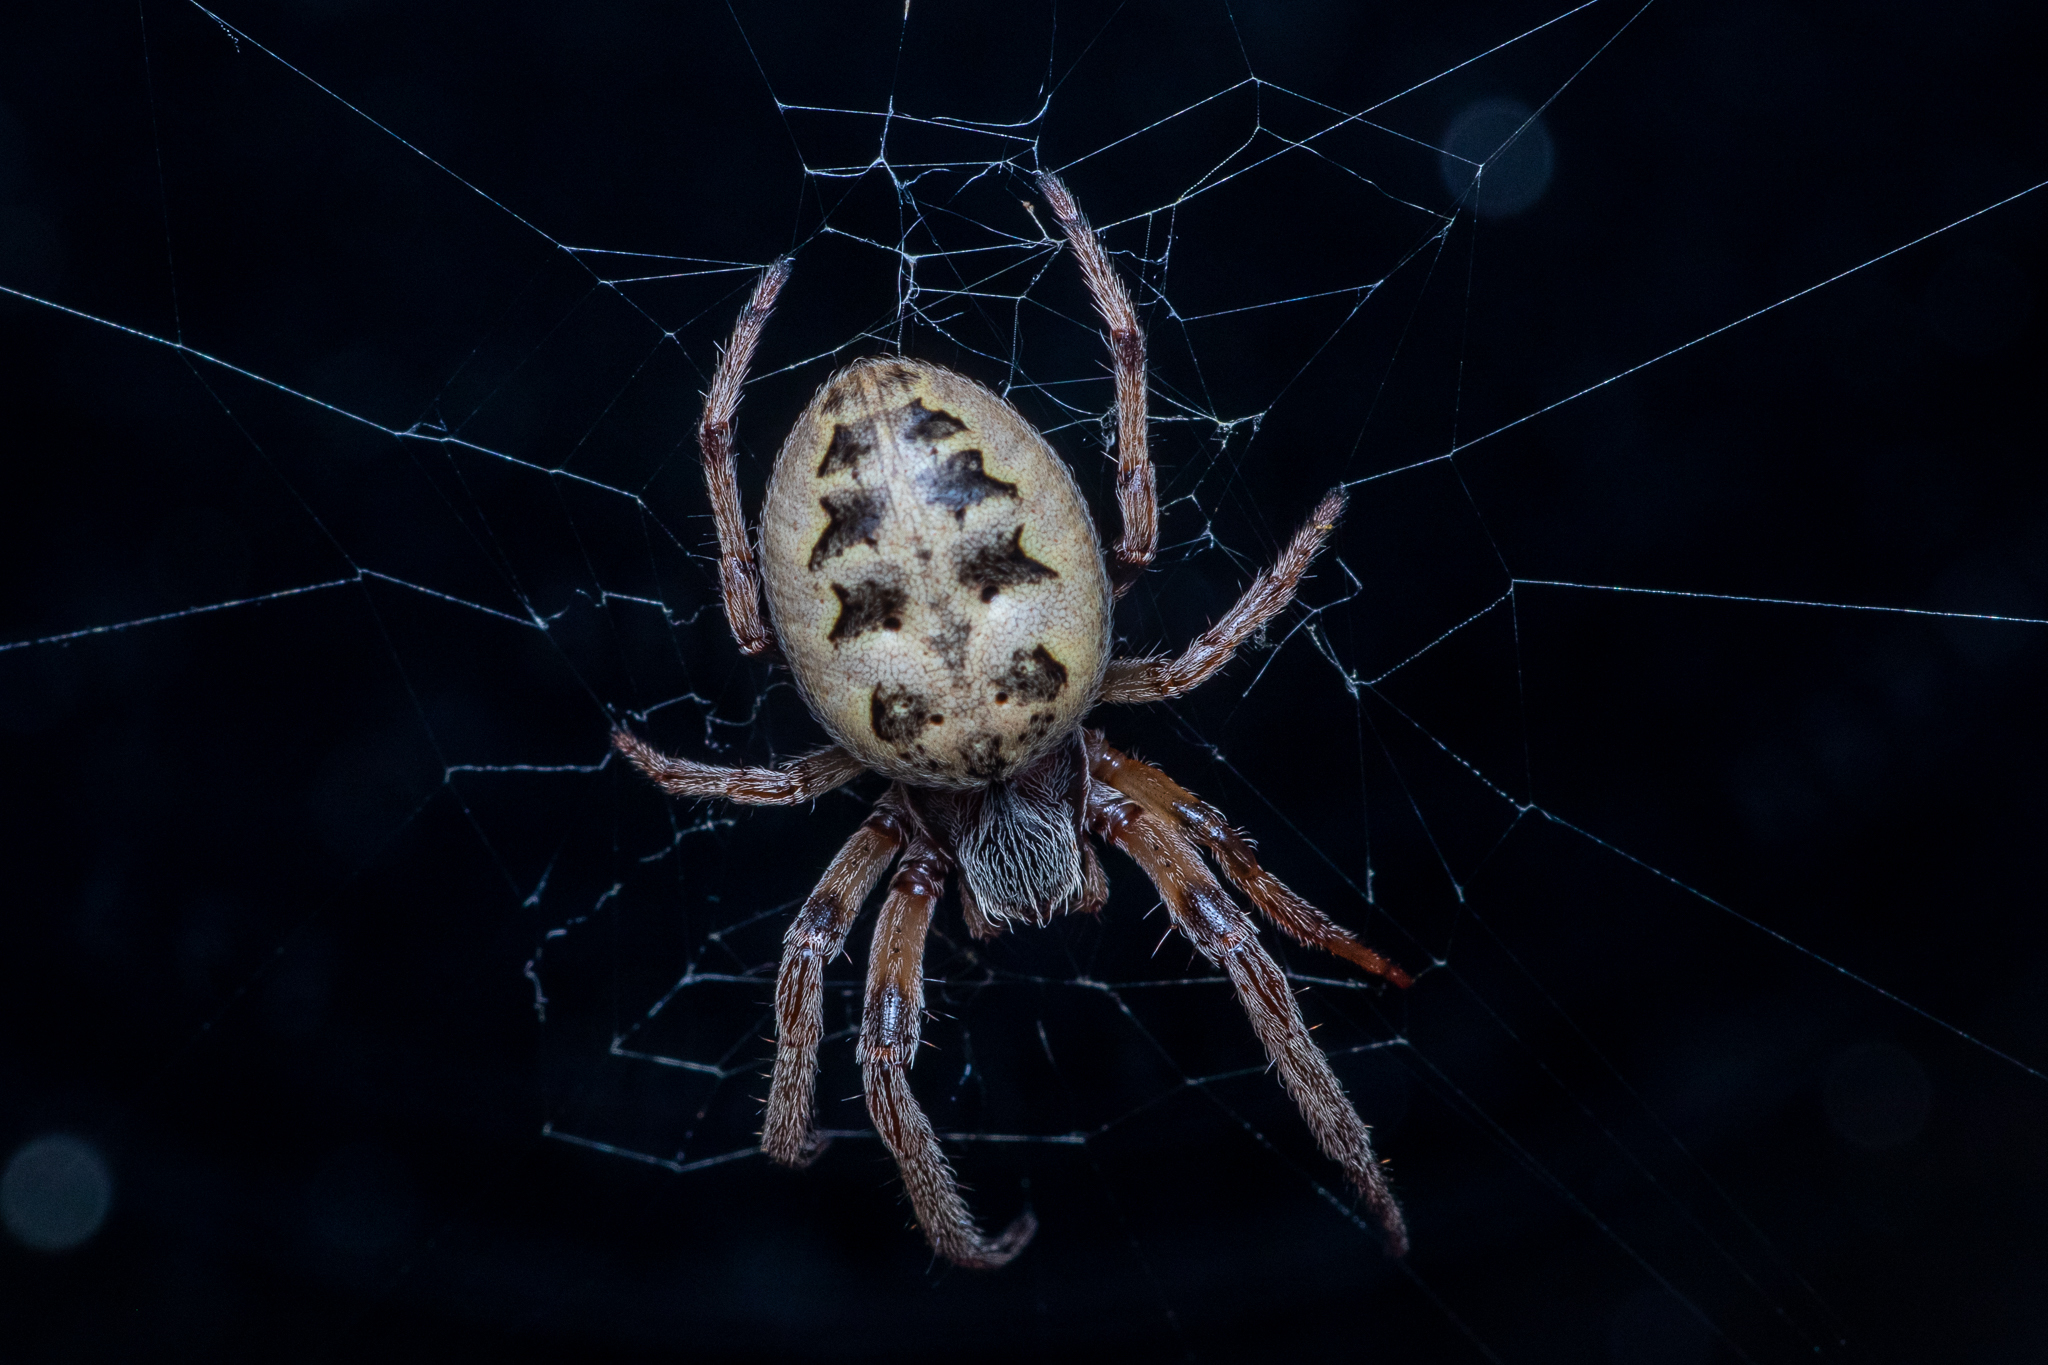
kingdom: Animalia
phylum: Arthropoda
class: Arachnida
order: Araneae
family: Araneidae
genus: Larinioides
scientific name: Larinioides cornutus
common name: Furrow orbweaver
